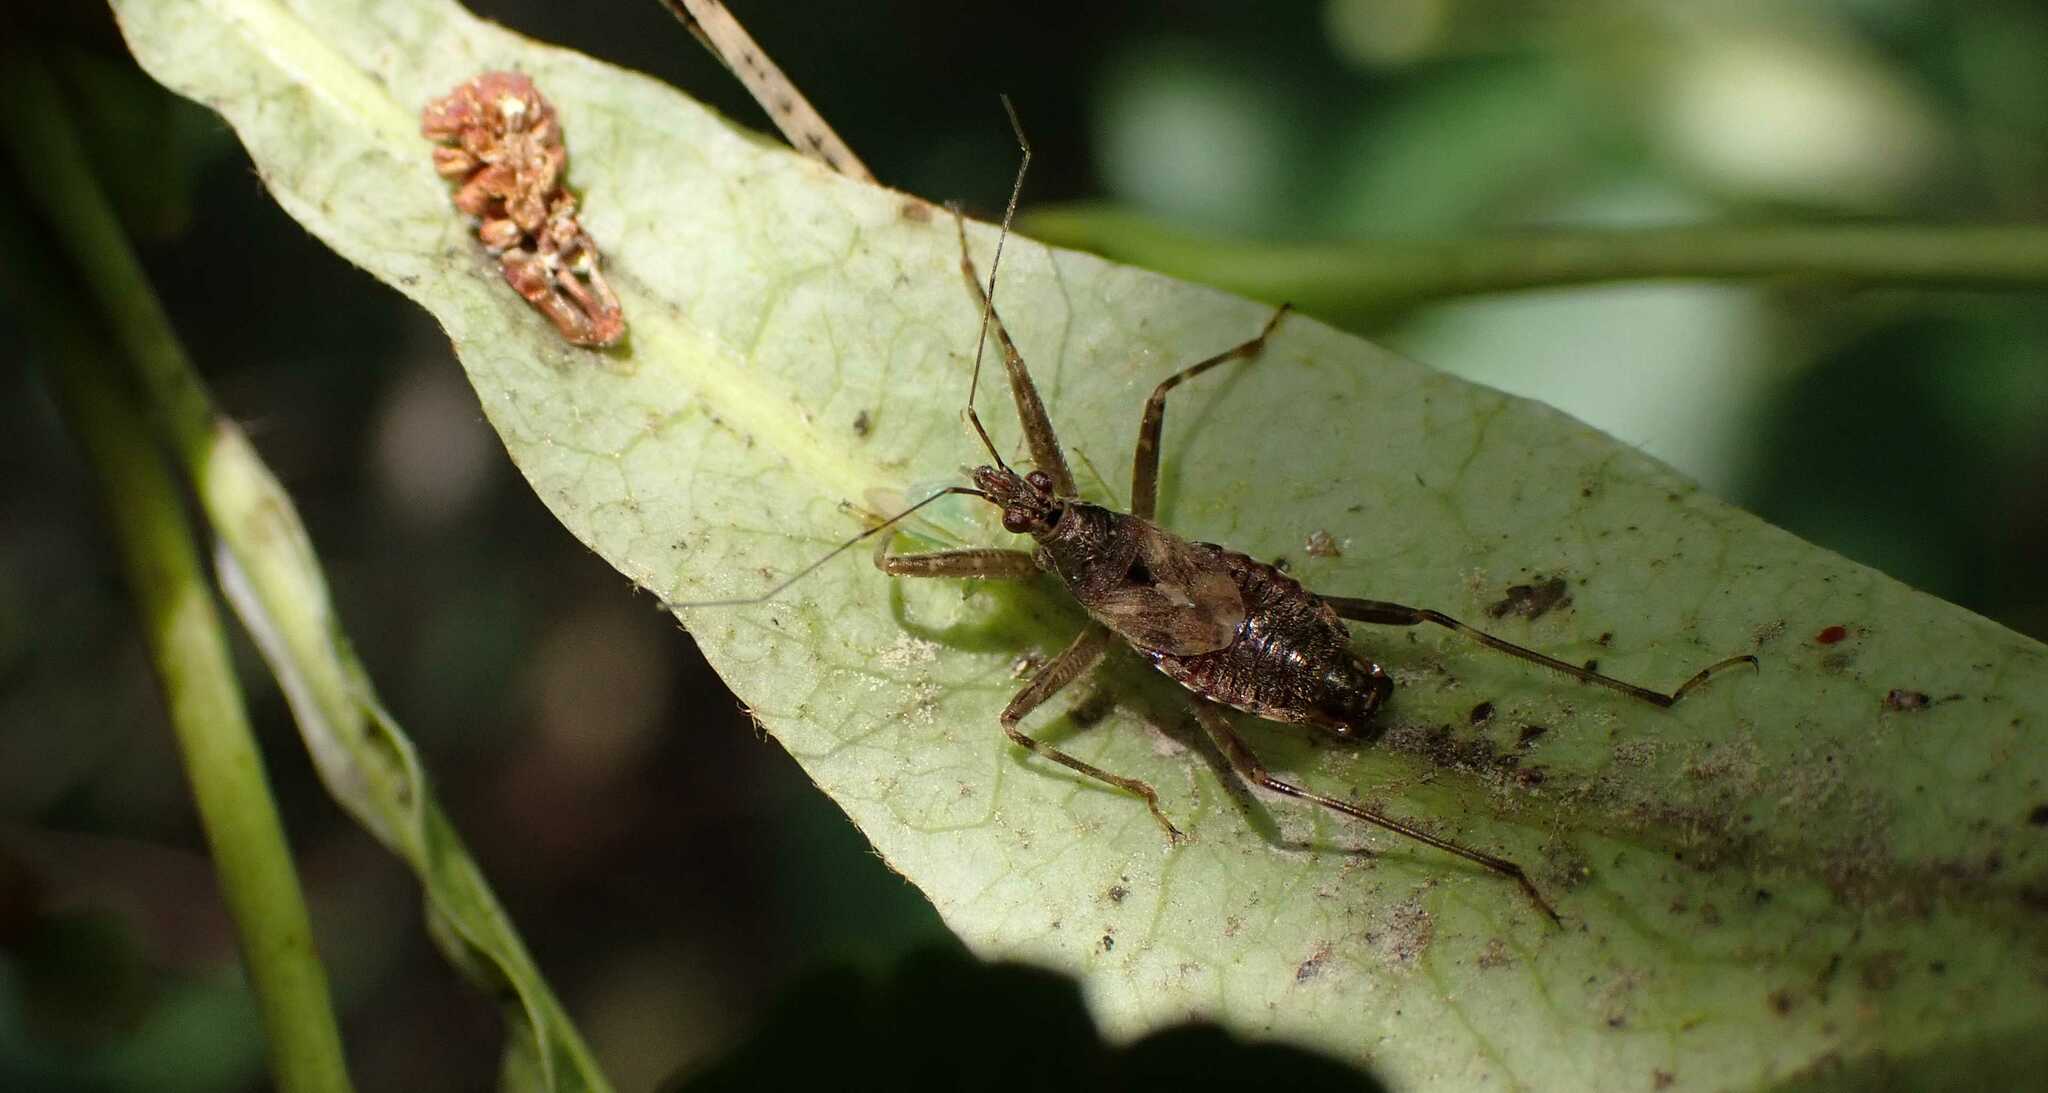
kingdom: Animalia
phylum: Arthropoda
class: Insecta
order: Hemiptera
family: Nabidae
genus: Himacerus
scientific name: Himacerus apterus
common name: Tree damsel bug
